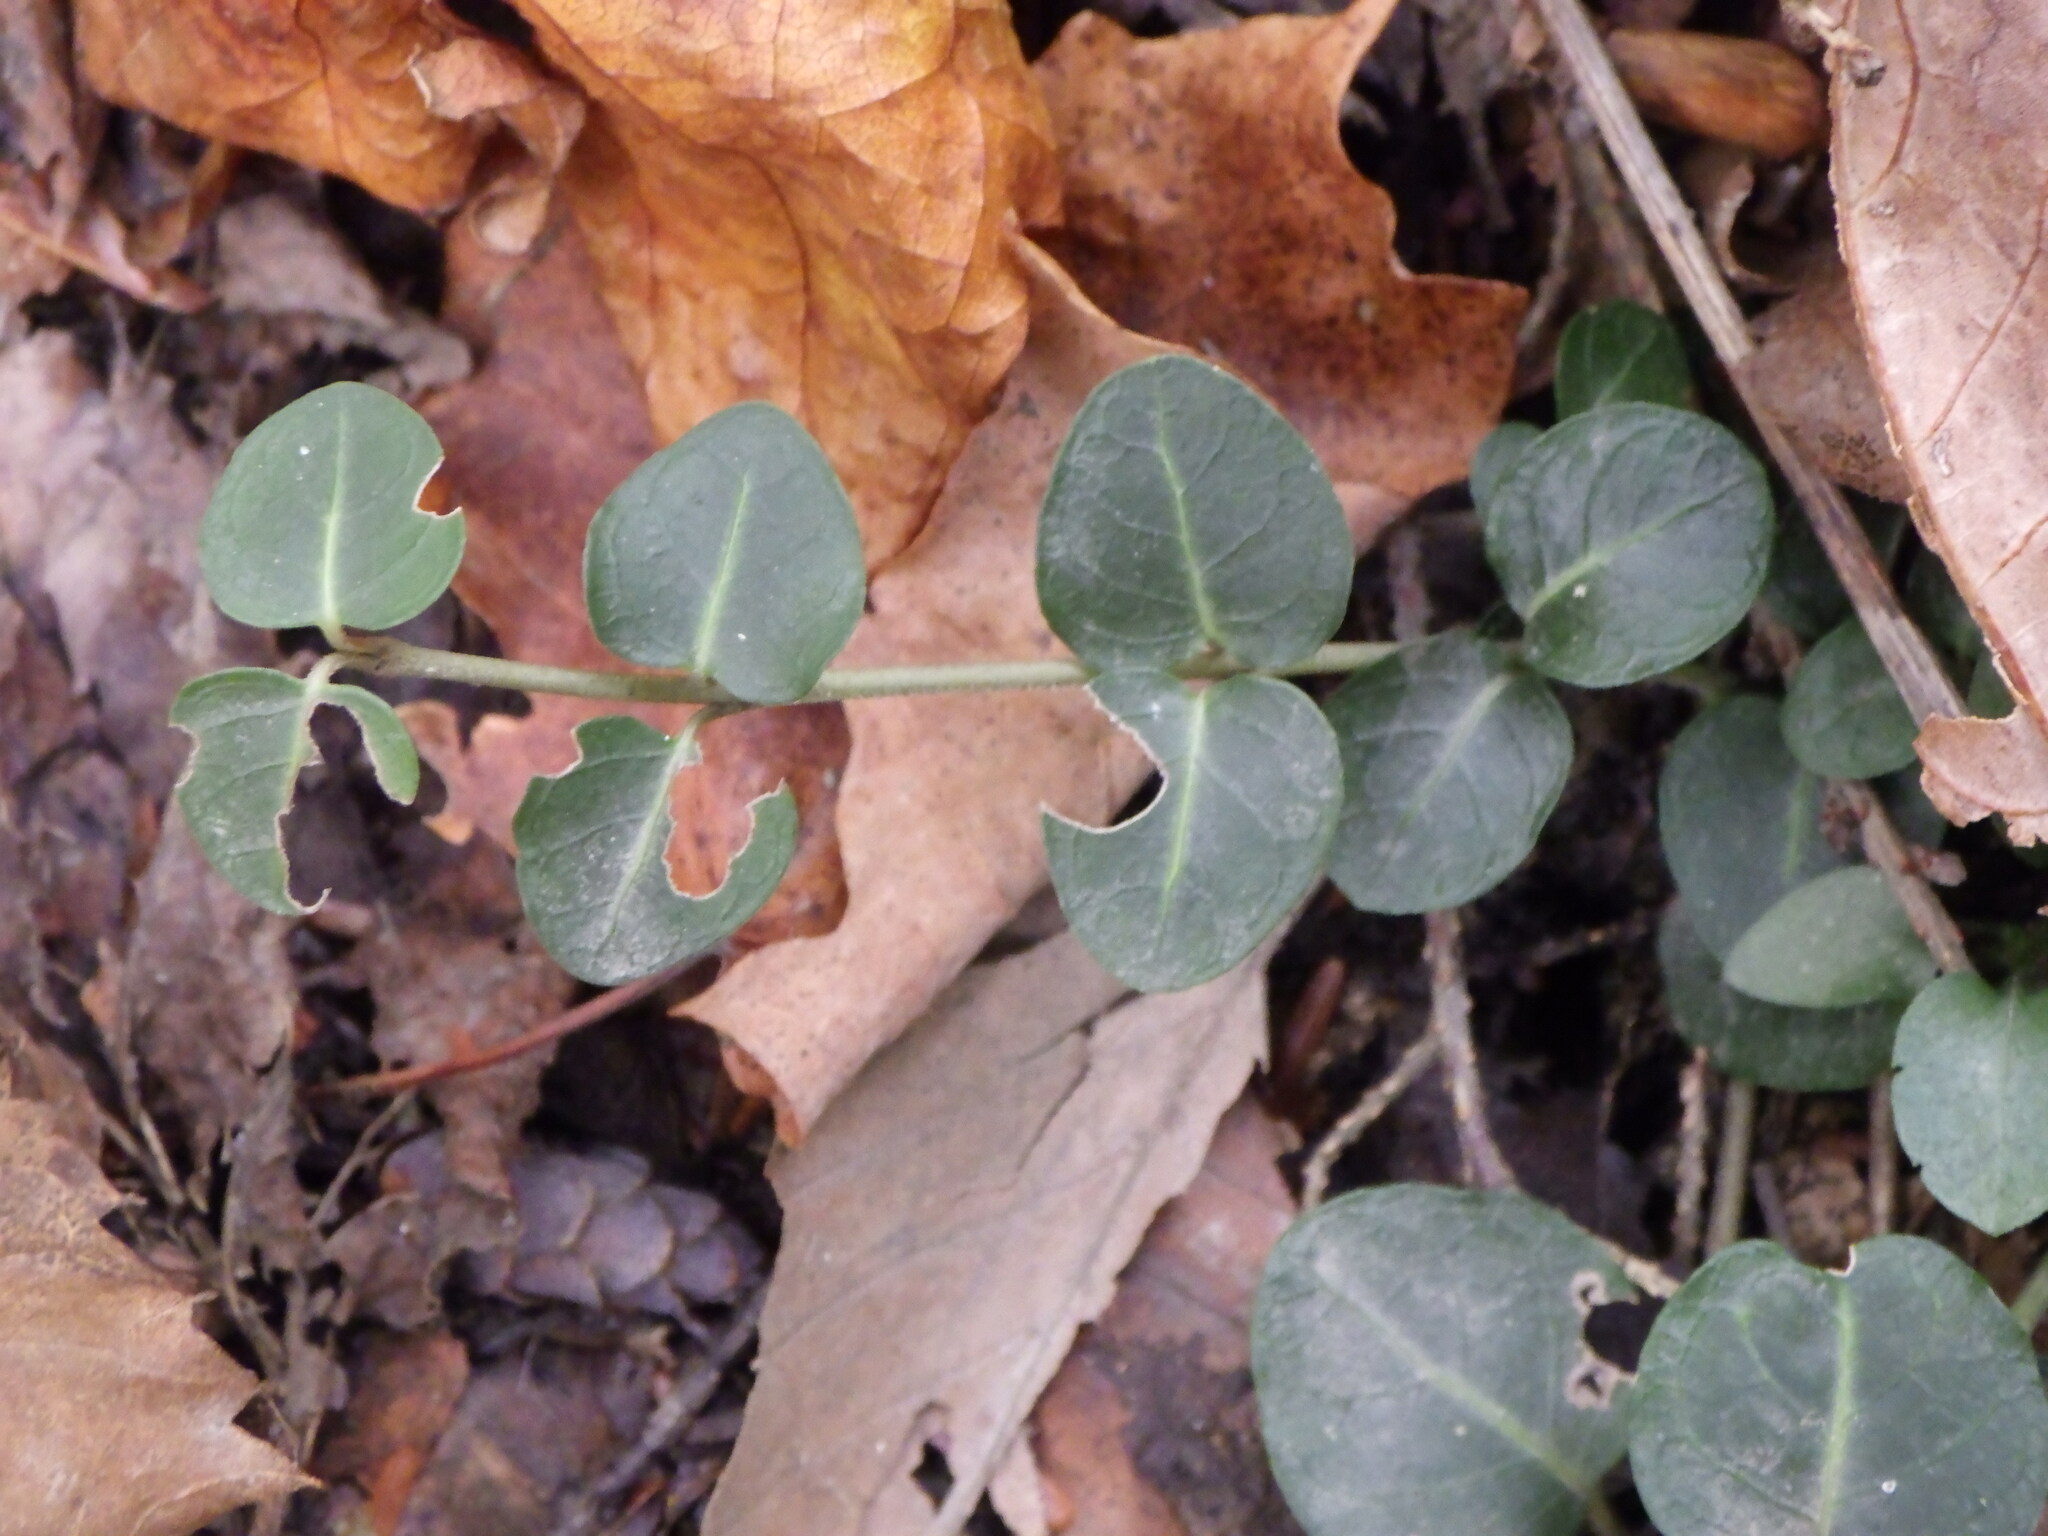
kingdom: Plantae
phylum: Tracheophyta
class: Magnoliopsida
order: Gentianales
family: Rubiaceae
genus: Mitchella
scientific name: Mitchella repens
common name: Partridge-berry
